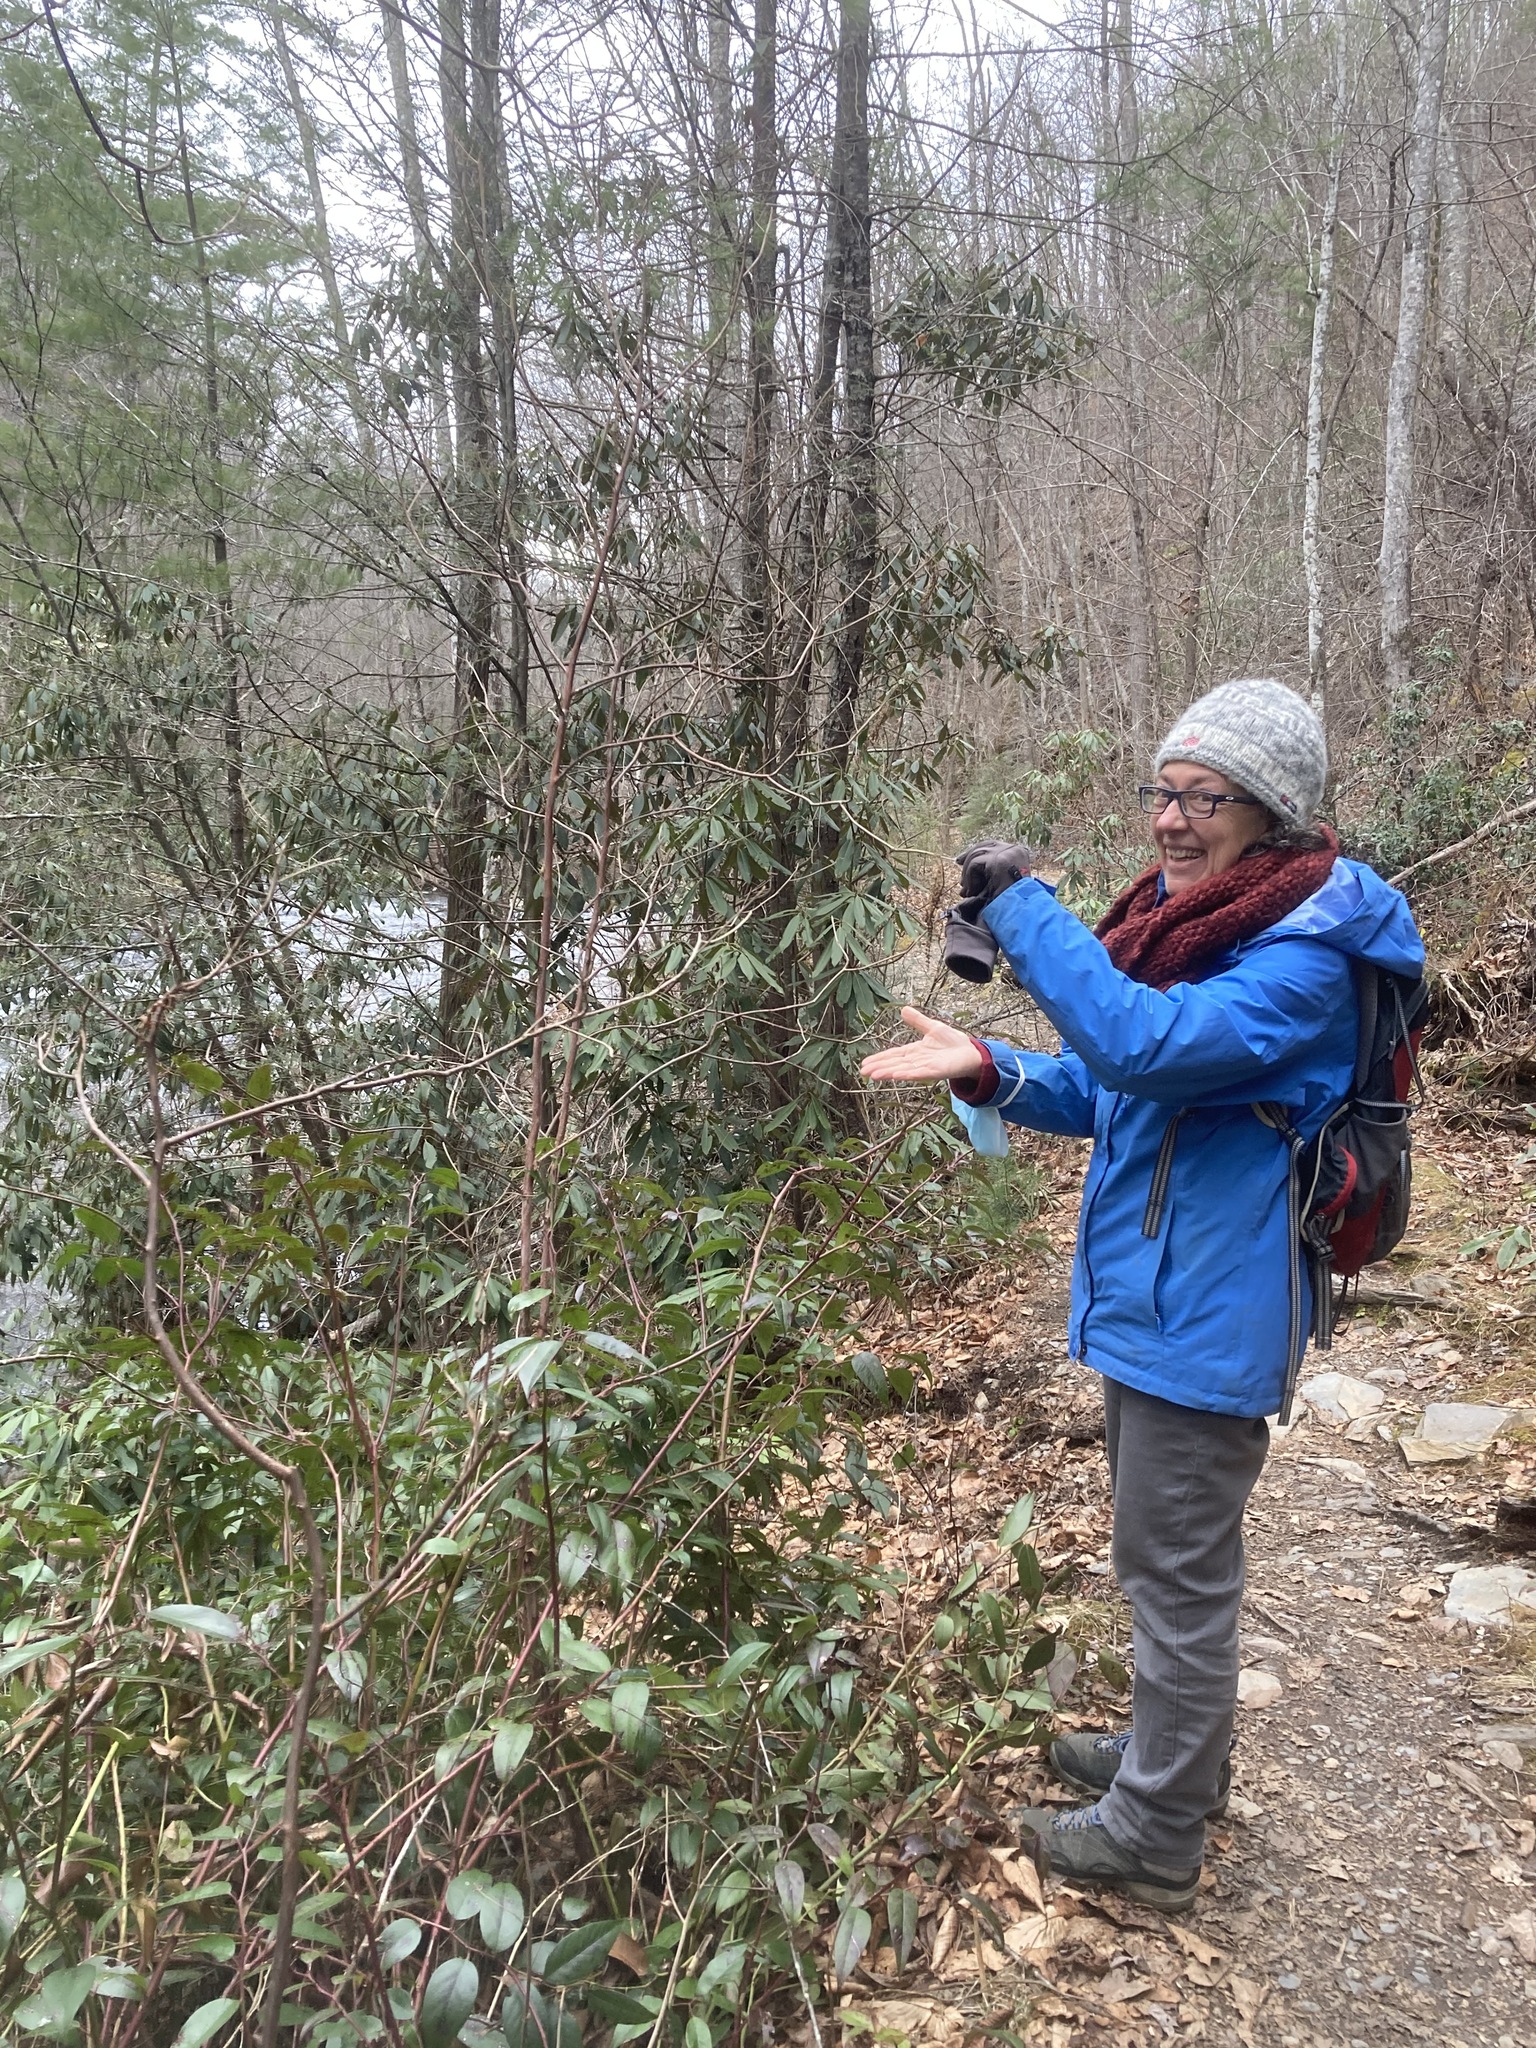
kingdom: Plantae
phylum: Tracheophyta
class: Magnoliopsida
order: Ericales
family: Clethraceae
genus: Clethra
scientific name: Clethra acuminata
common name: Mountain sweet pepperbush
